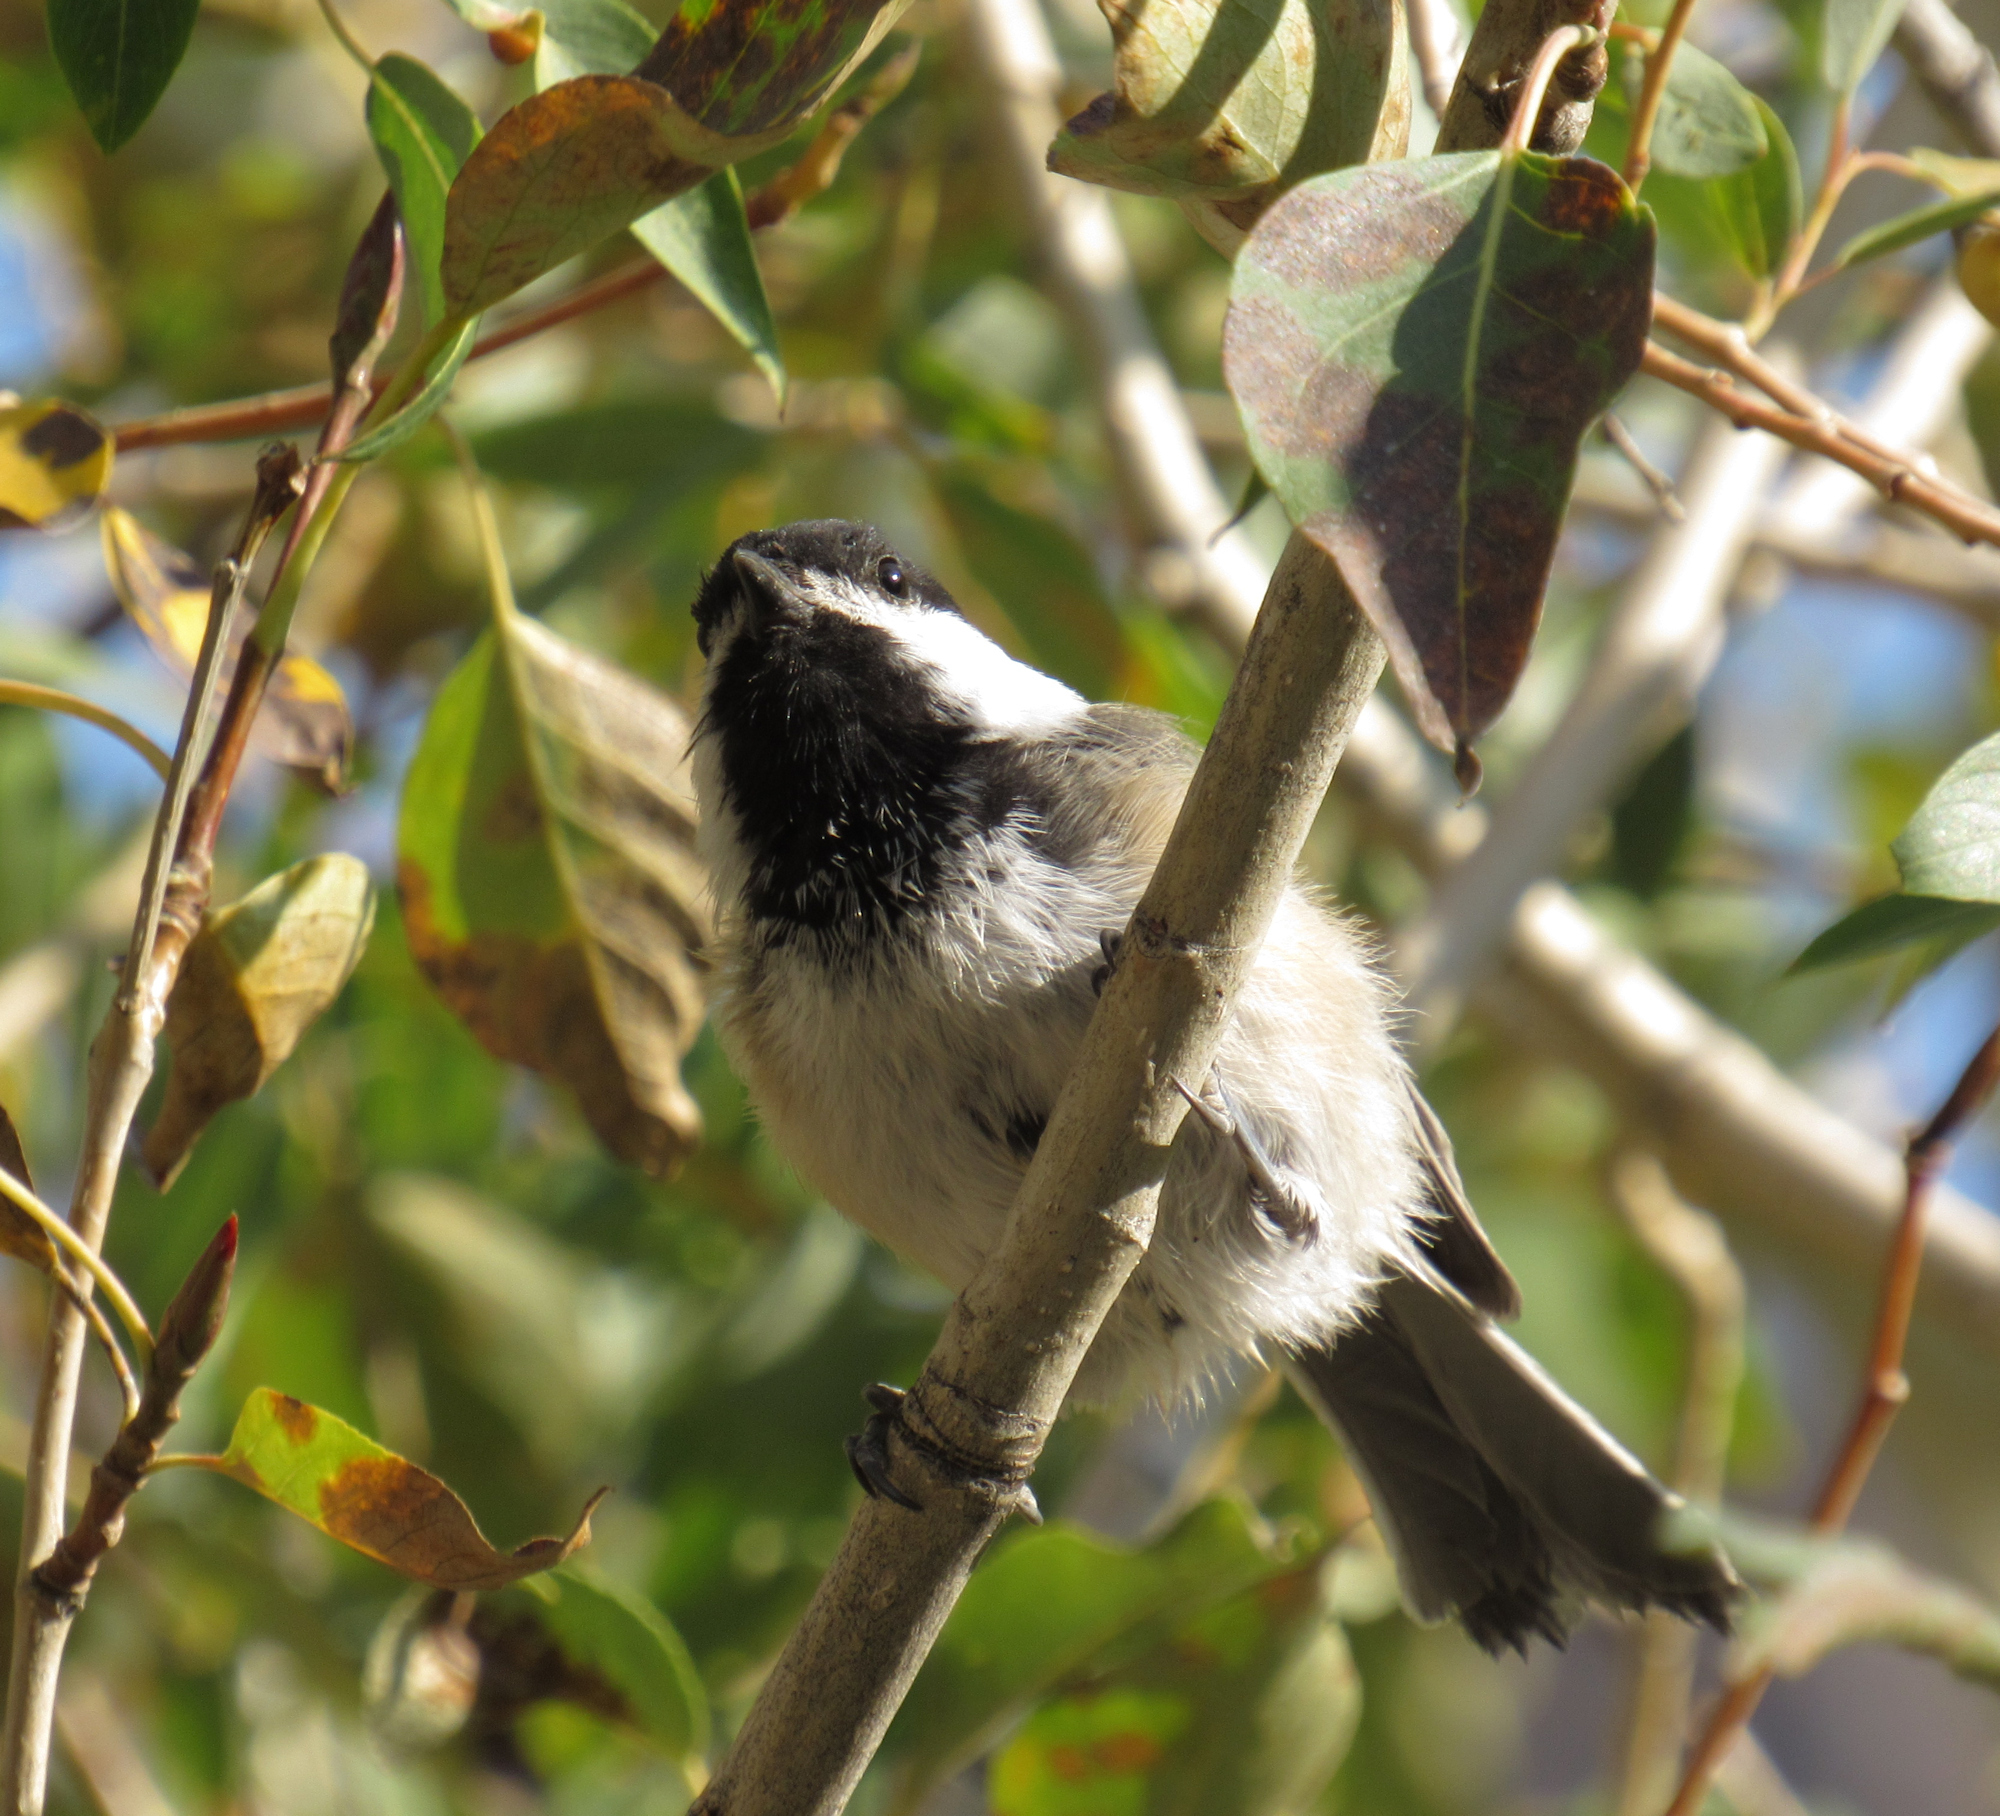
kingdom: Animalia
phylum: Chordata
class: Aves
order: Passeriformes
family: Paridae
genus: Poecile
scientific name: Poecile atricapillus
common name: Black-capped chickadee
